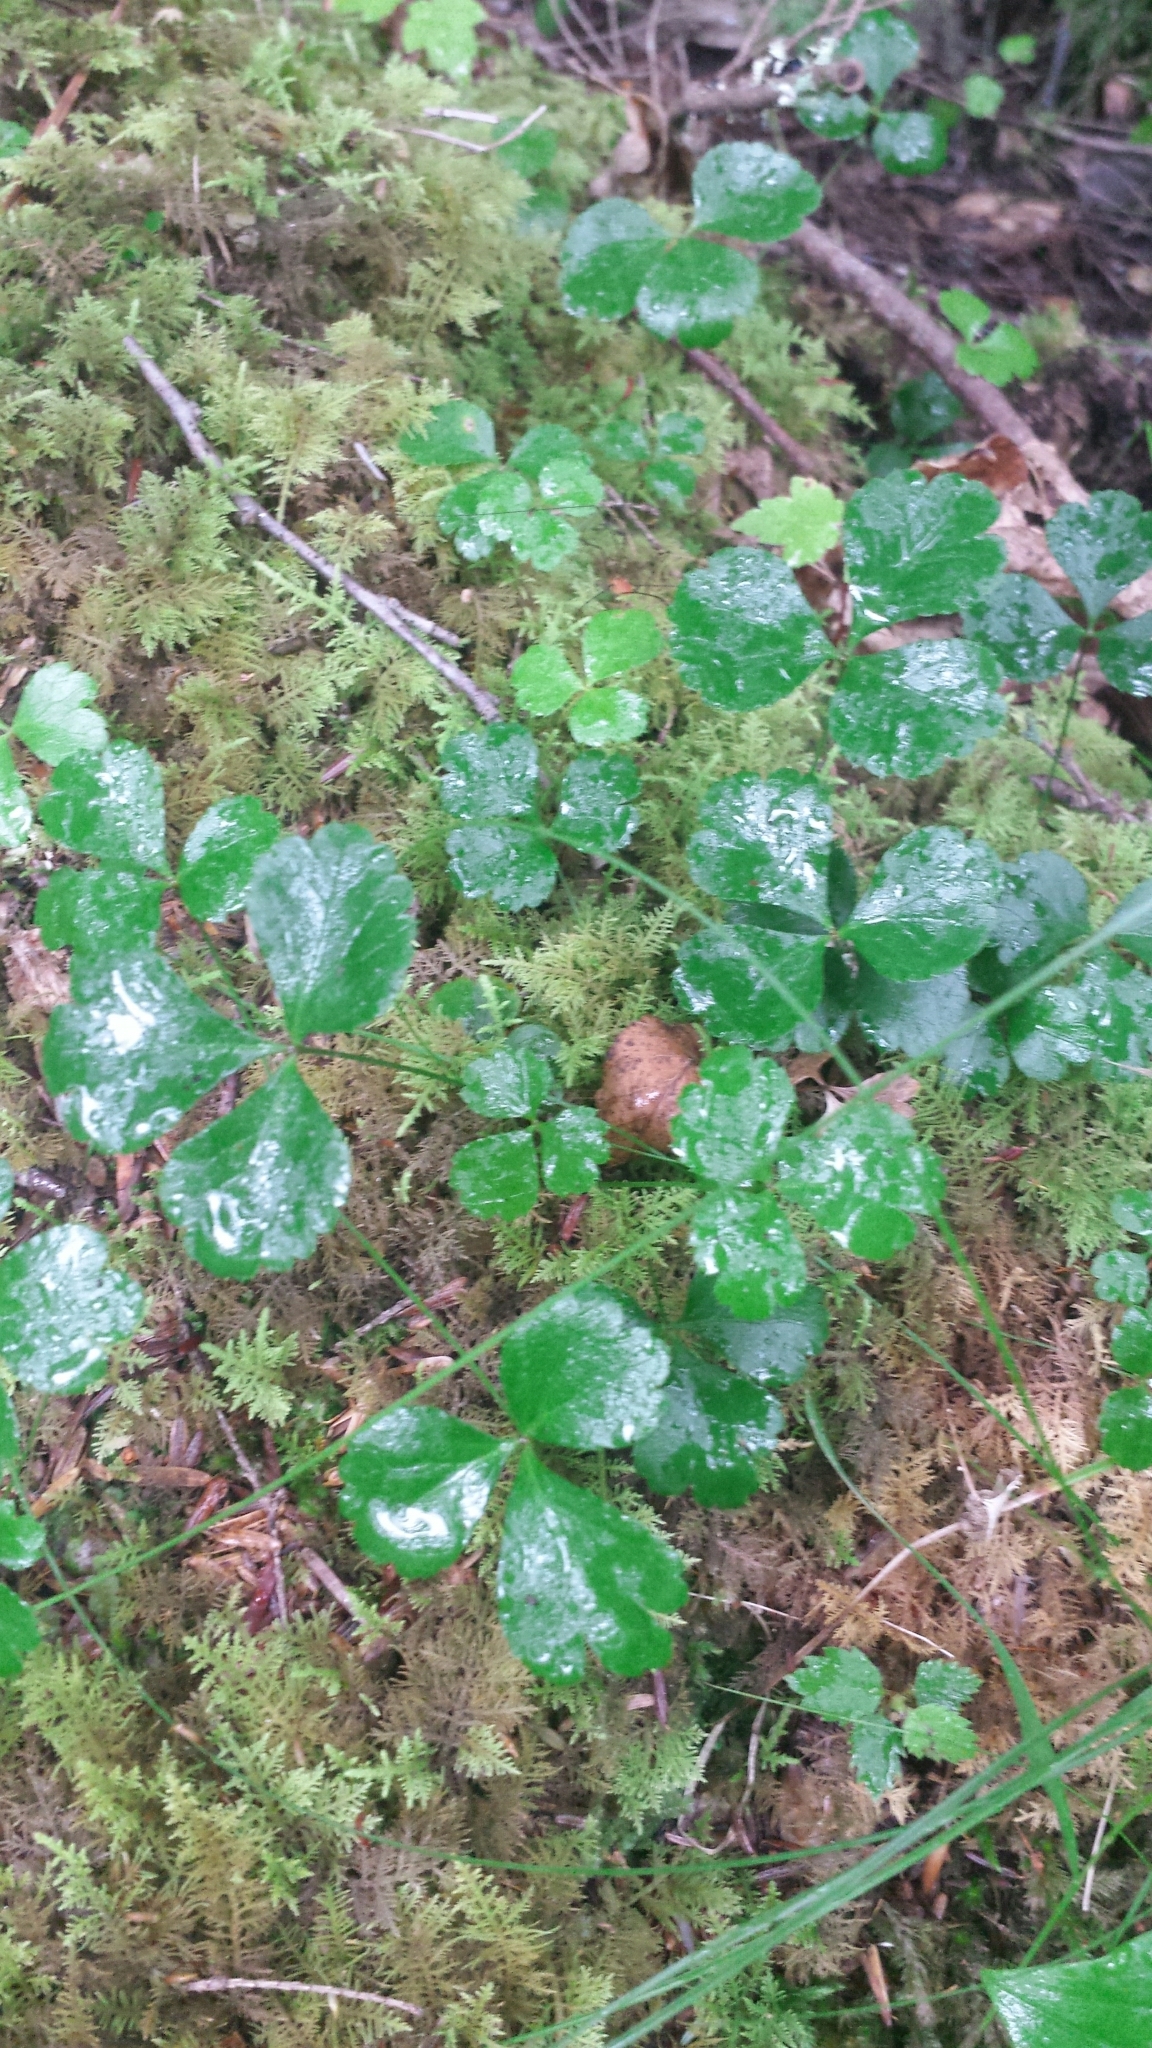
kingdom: Plantae
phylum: Tracheophyta
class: Magnoliopsida
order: Ranunculales
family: Ranunculaceae
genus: Coptis
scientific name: Coptis trifolia
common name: Canker-root
